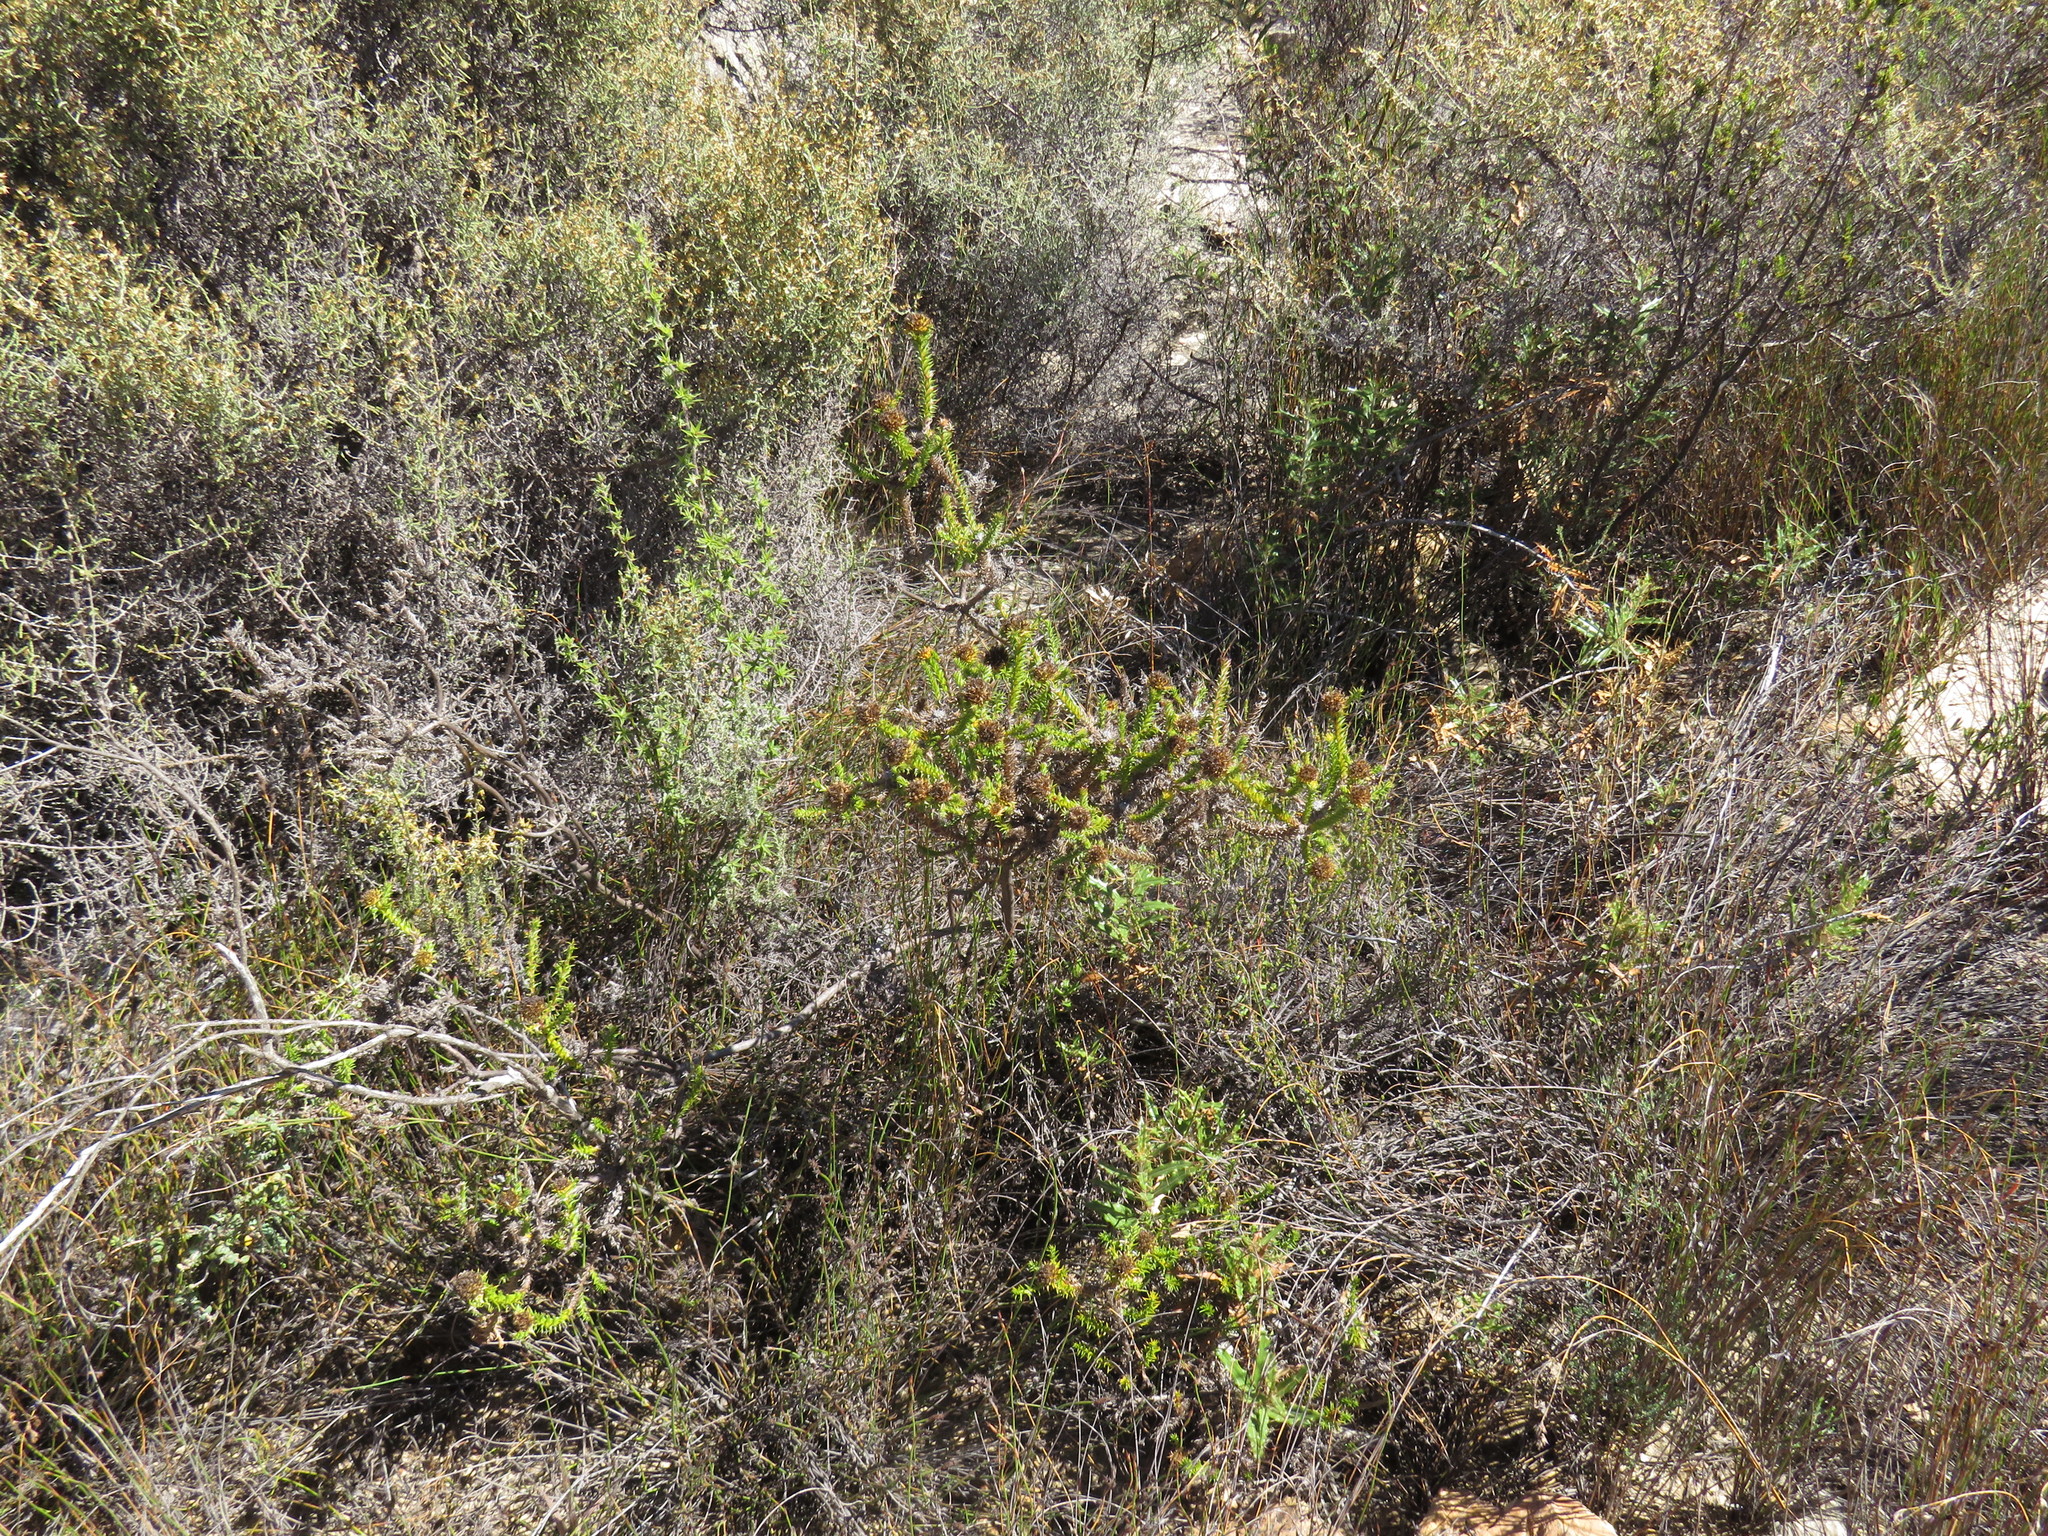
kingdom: Plantae
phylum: Tracheophyta
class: Magnoliopsida
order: Asterales
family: Asteraceae
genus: Stoebe
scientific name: Stoebe aethiopica
